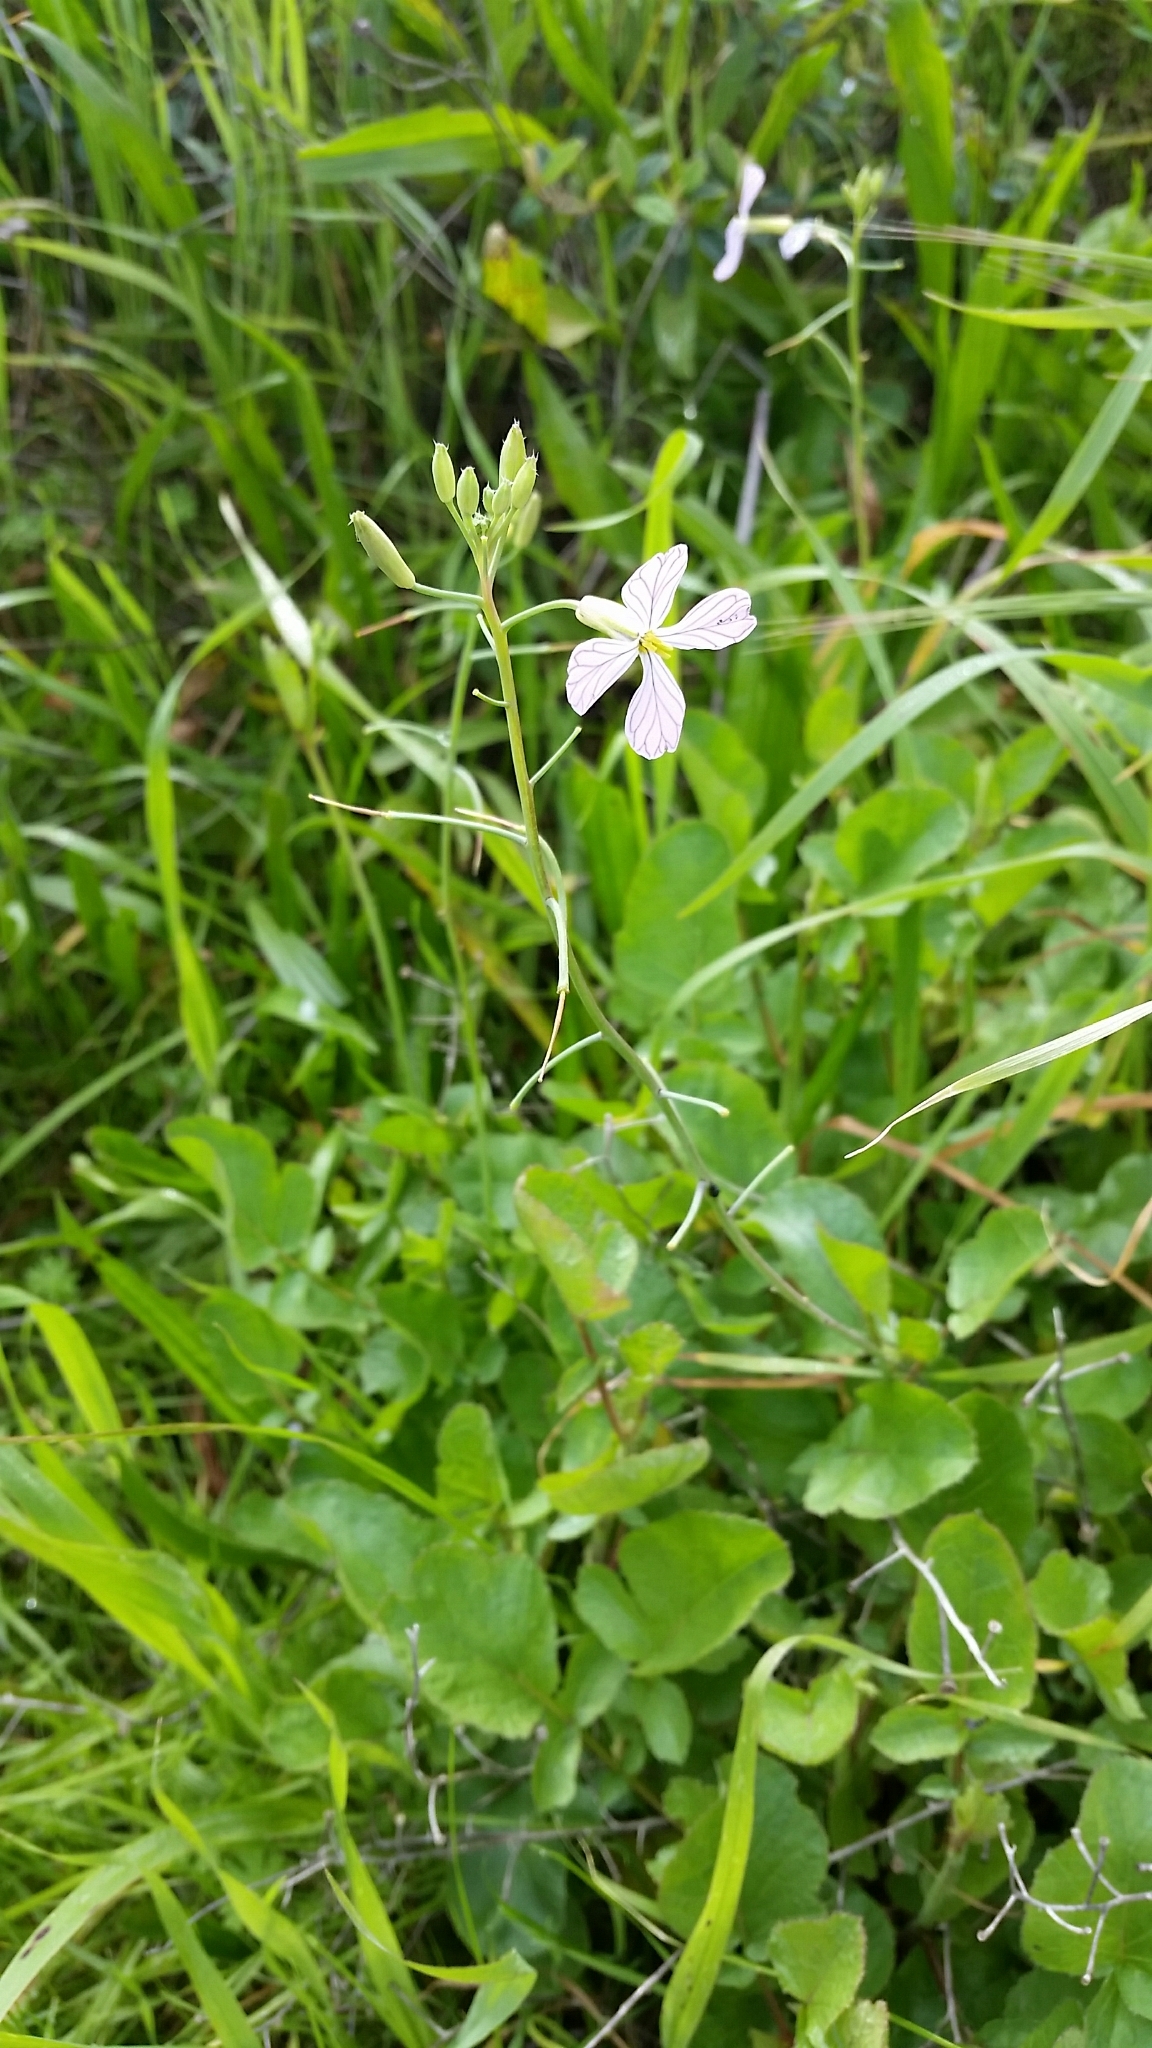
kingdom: Plantae
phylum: Tracheophyta
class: Magnoliopsida
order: Brassicales
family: Brassicaceae
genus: Raphanus
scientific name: Raphanus sativus
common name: Cultivated radish
